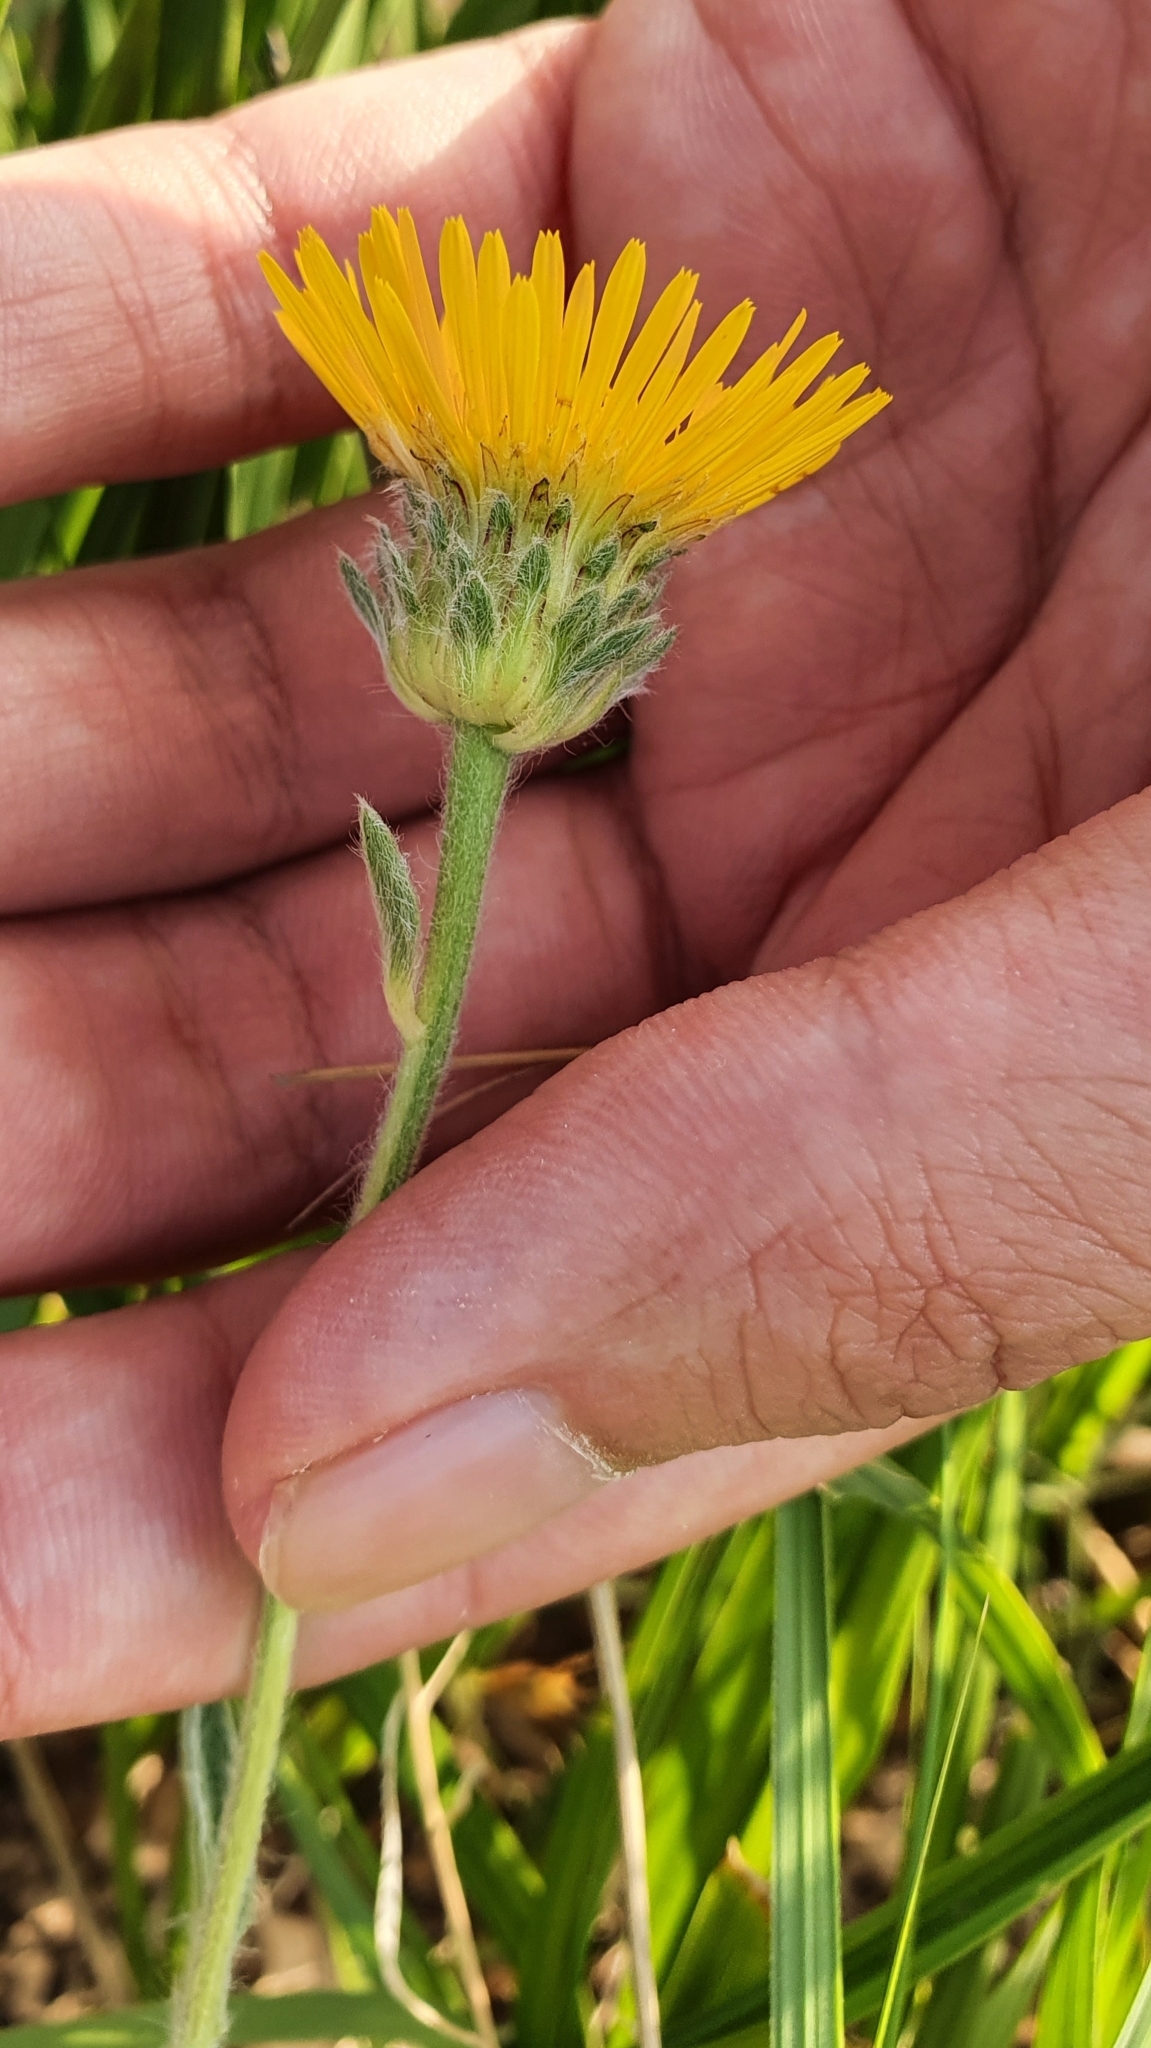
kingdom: Plantae
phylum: Tracheophyta
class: Magnoliopsida
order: Asterales
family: Asteraceae
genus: Pentanema
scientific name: Pentanema montanum
